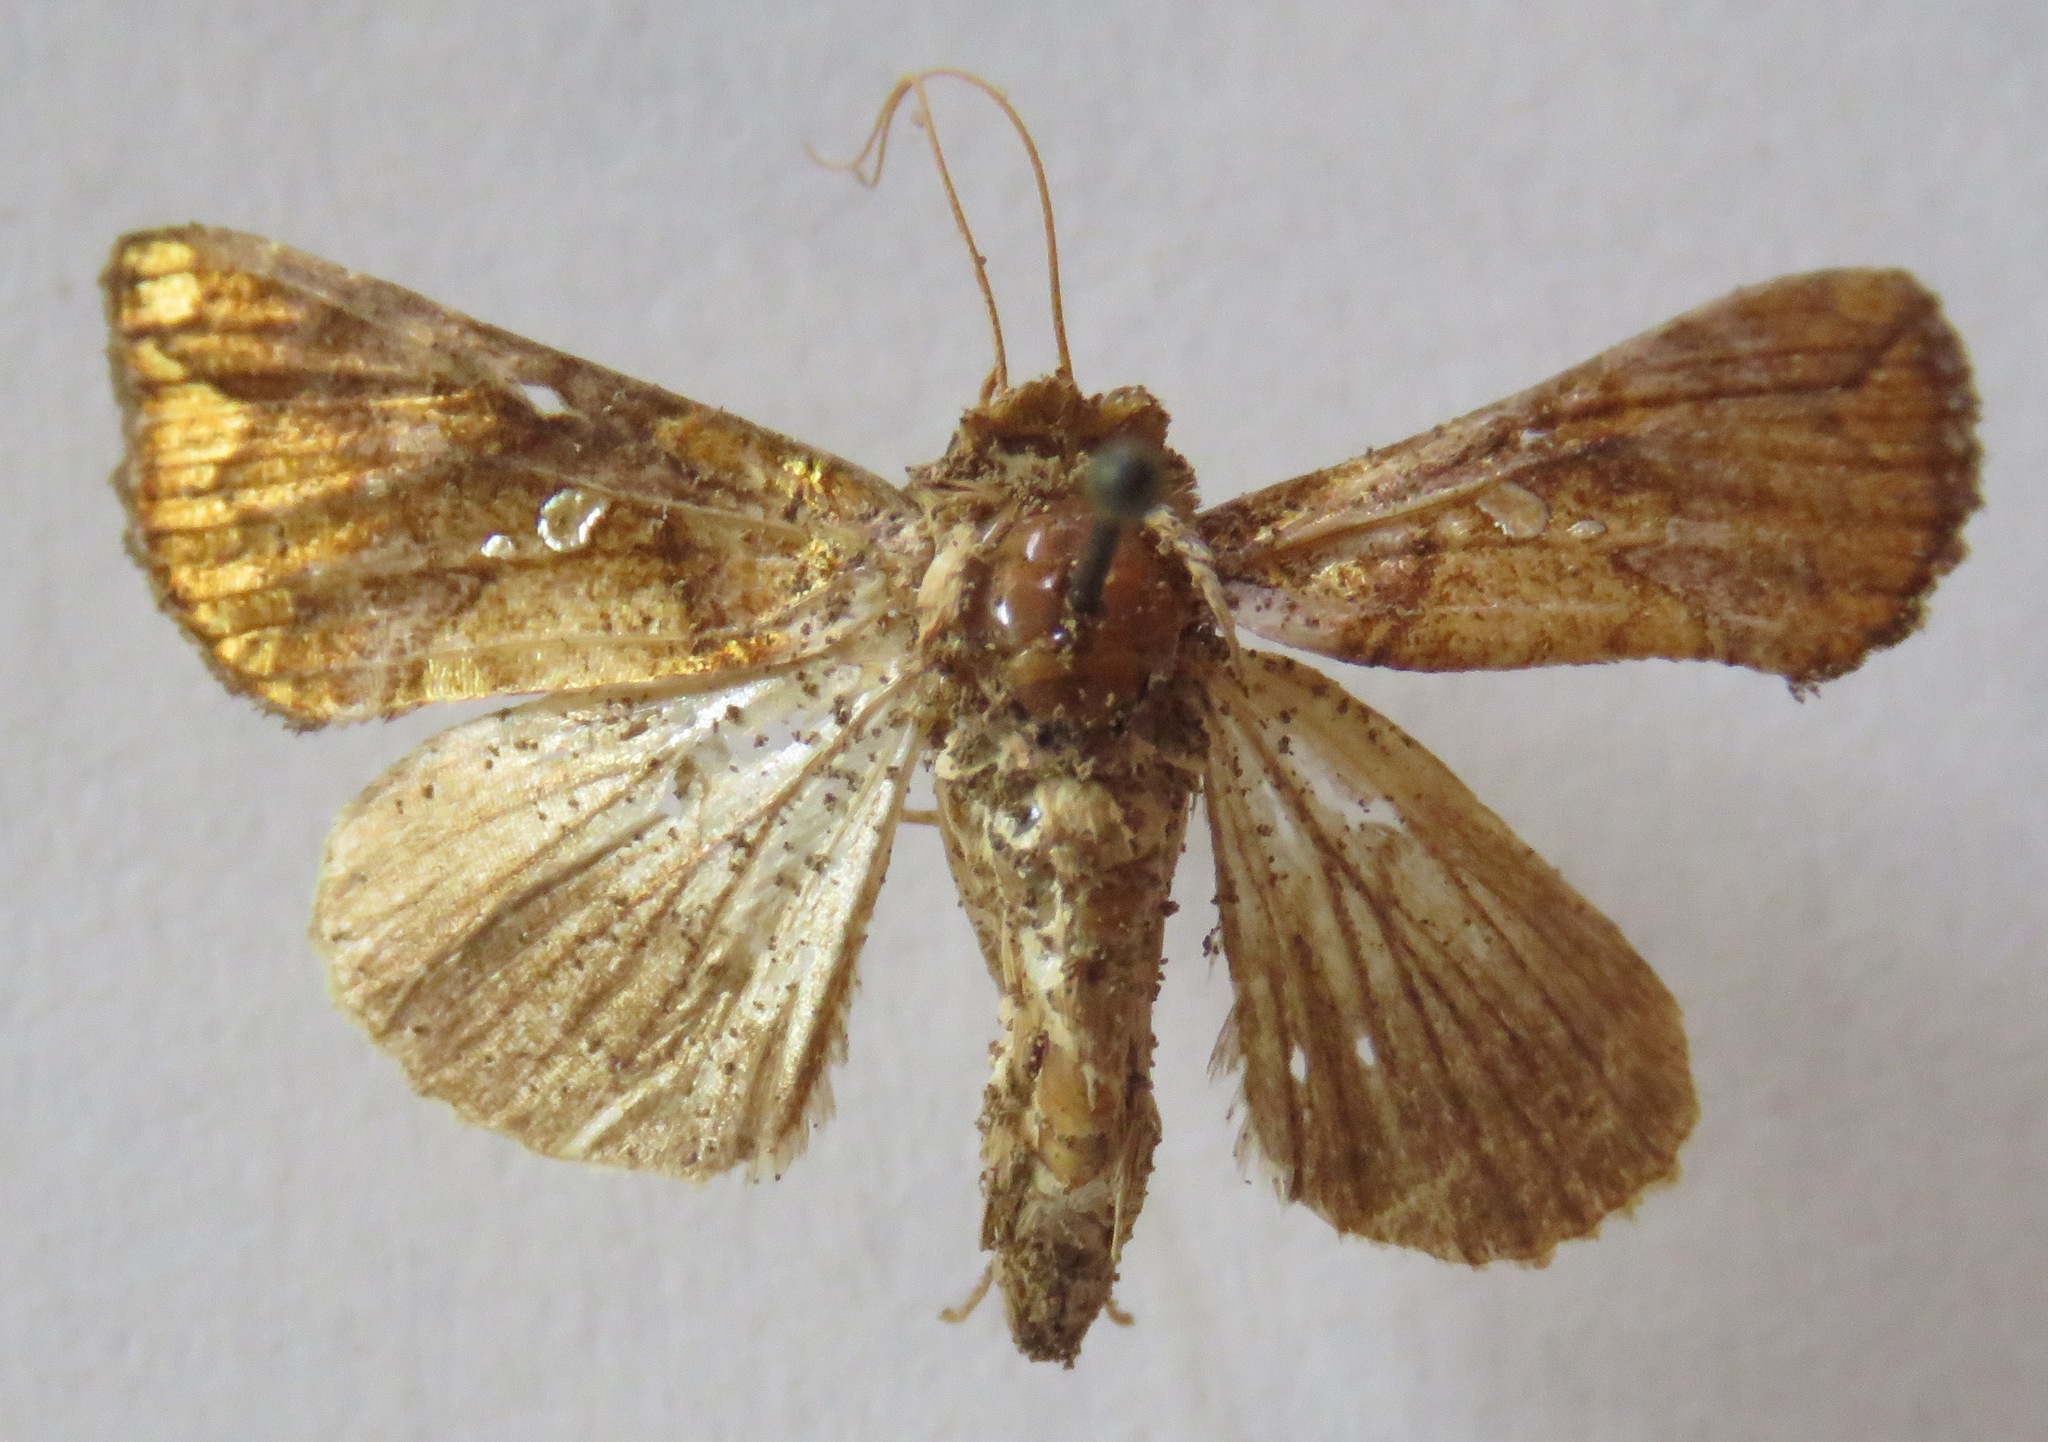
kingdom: Animalia
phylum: Arthropoda
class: Insecta
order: Lepidoptera
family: Noctuidae
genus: Argyrogramma
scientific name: Argyrogramma verruca
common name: Golden looper moth
